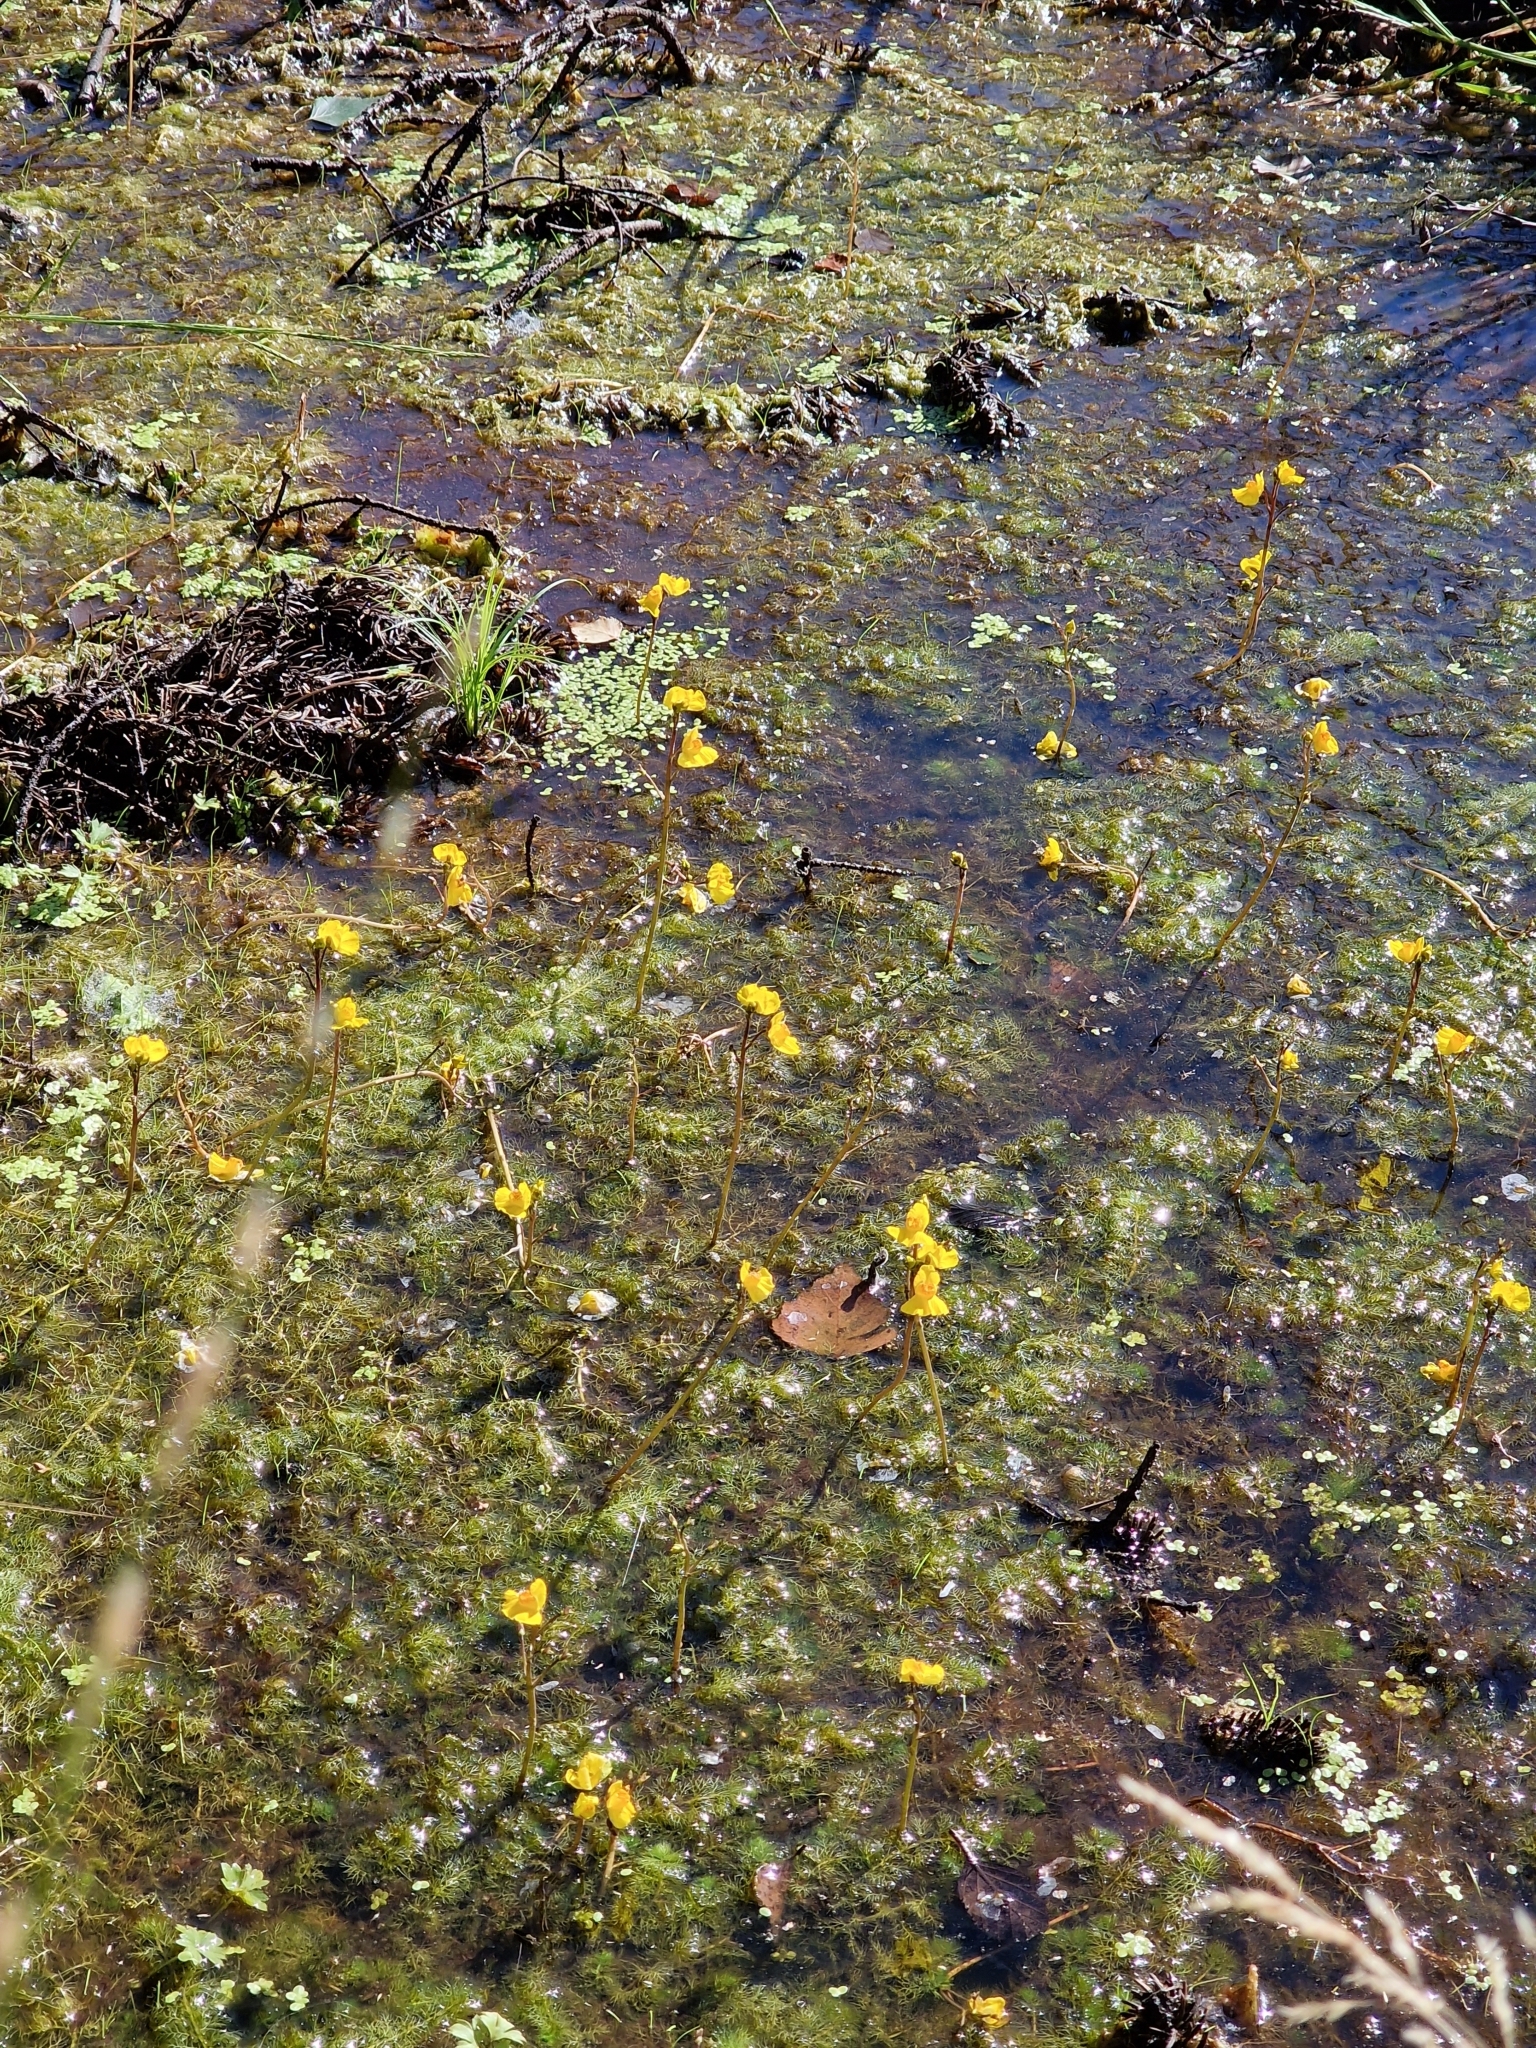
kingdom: Plantae
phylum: Tracheophyta
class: Magnoliopsida
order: Lamiales
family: Lentibulariaceae
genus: Utricularia
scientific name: Utricularia australis
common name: Bladderwort
